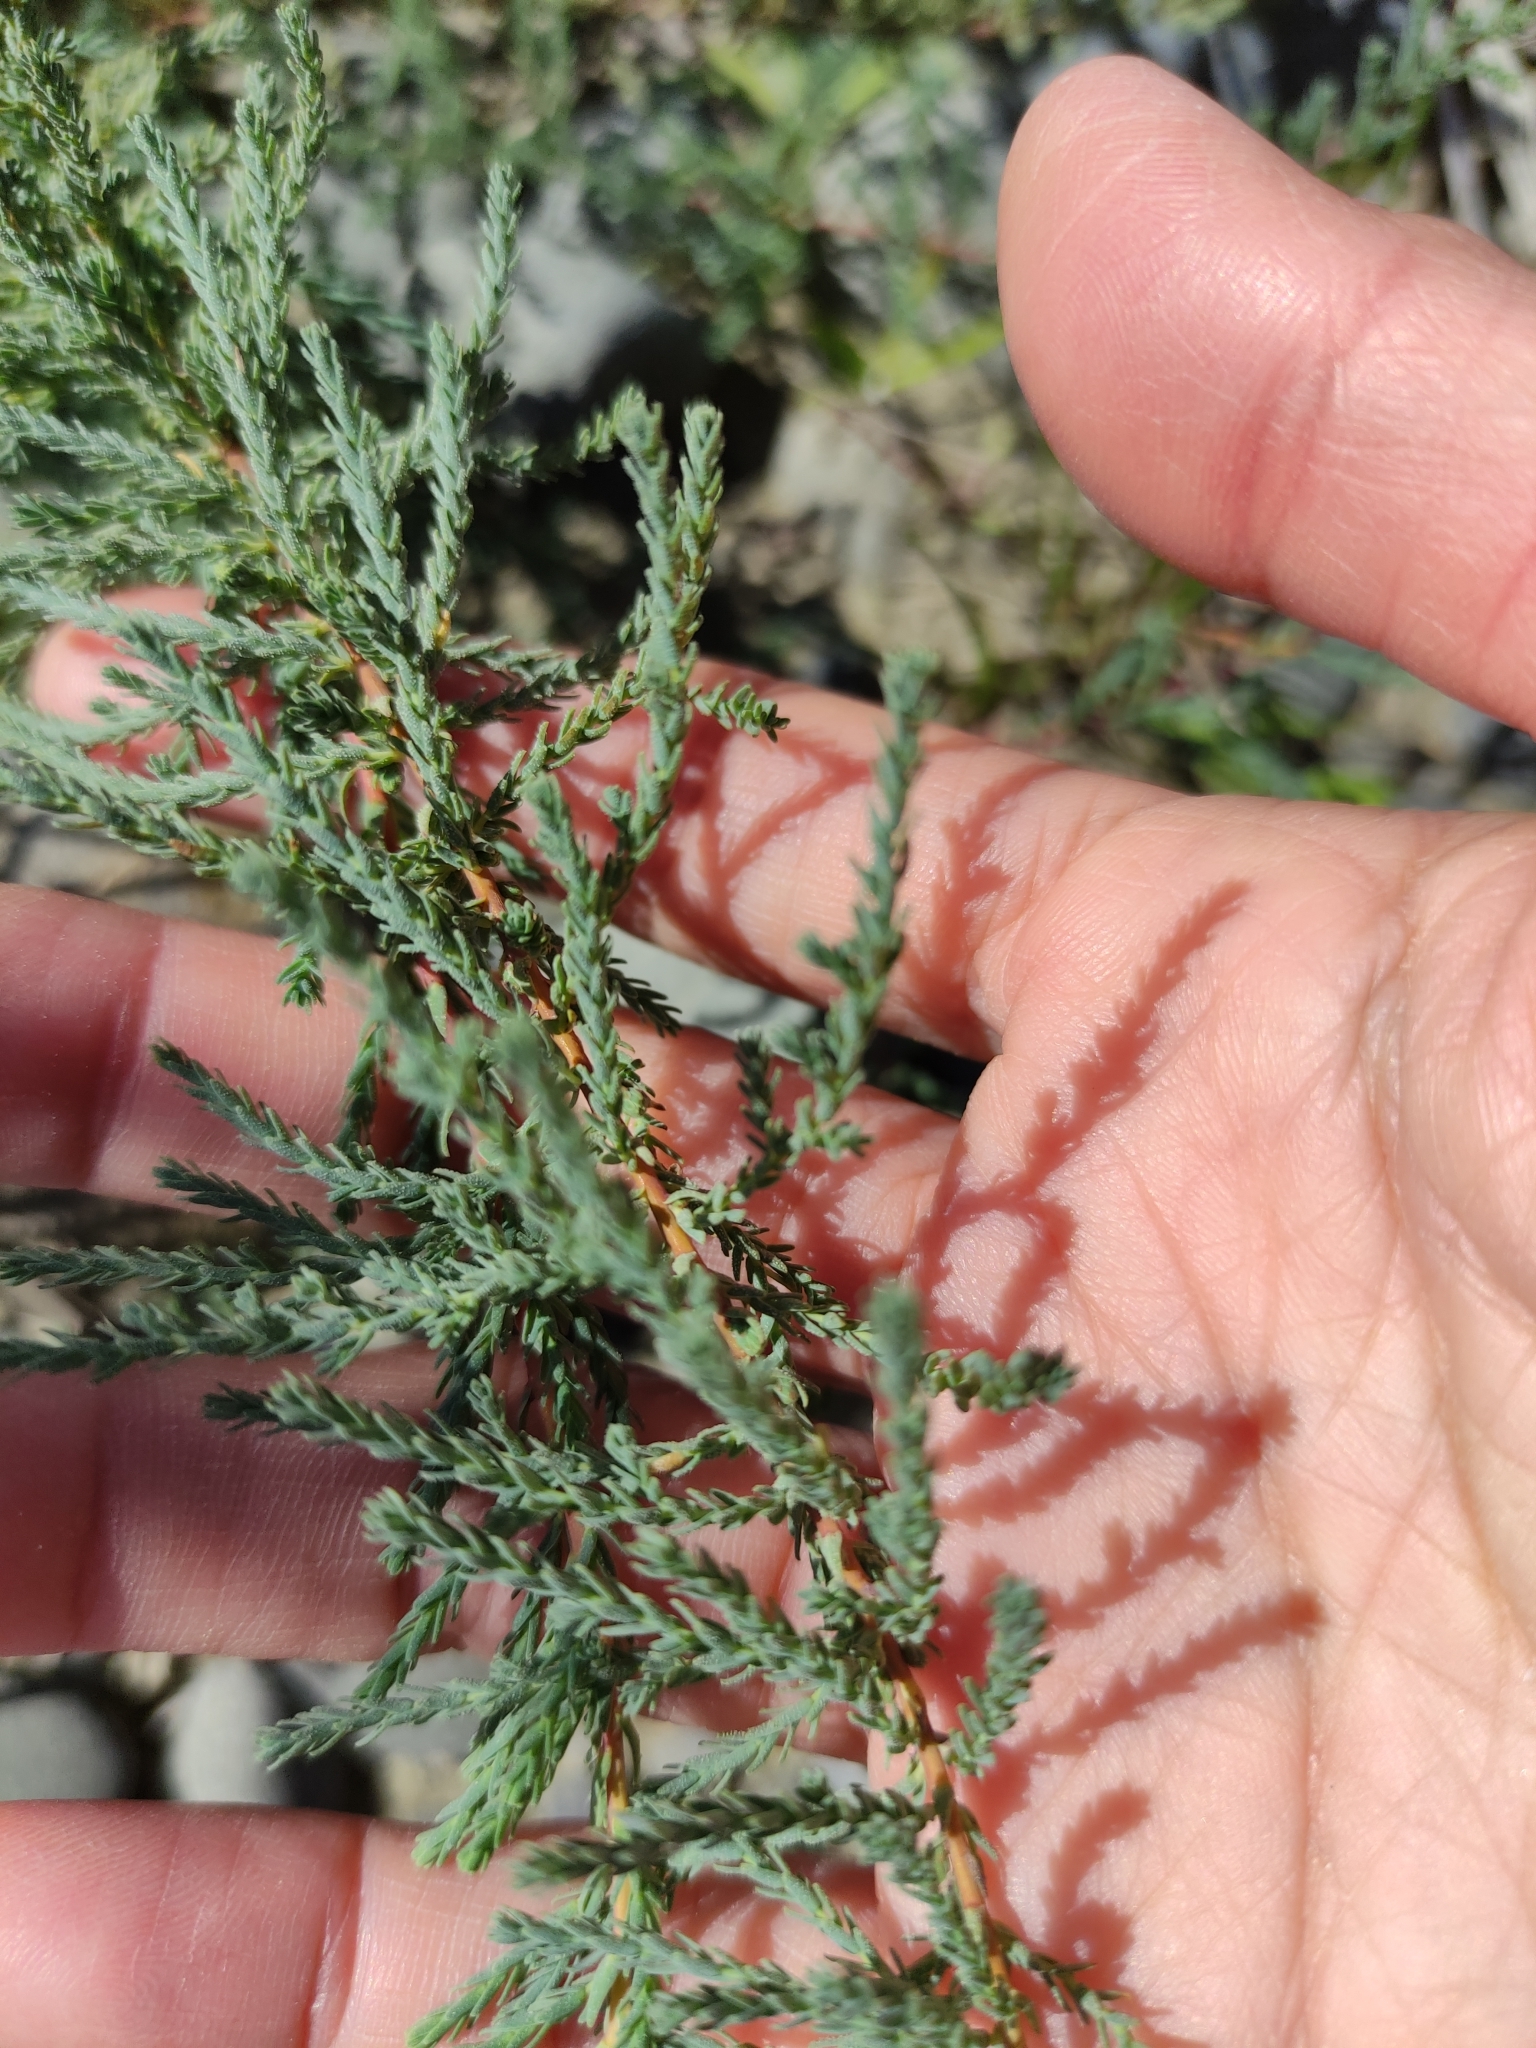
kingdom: Plantae
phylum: Tracheophyta
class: Magnoliopsida
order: Caryophyllales
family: Tamaricaceae
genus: Myricaria
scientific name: Myricaria germanica
